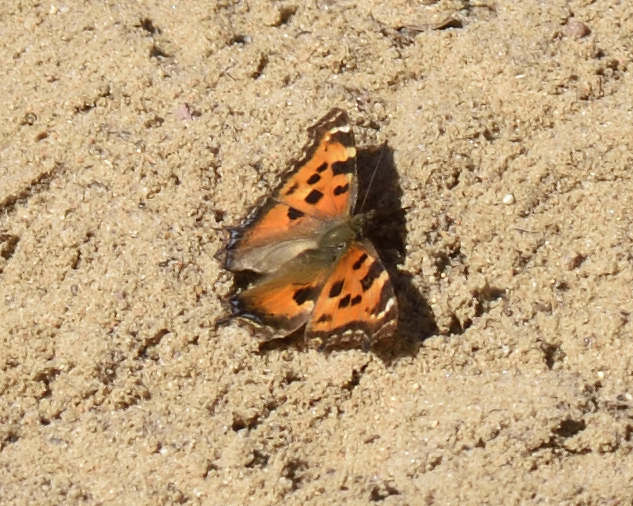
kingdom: Animalia
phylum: Arthropoda
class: Insecta
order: Lepidoptera
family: Nymphalidae
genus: Nymphalis
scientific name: Nymphalis xanthomelas
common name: Scarce tortoiseshell
